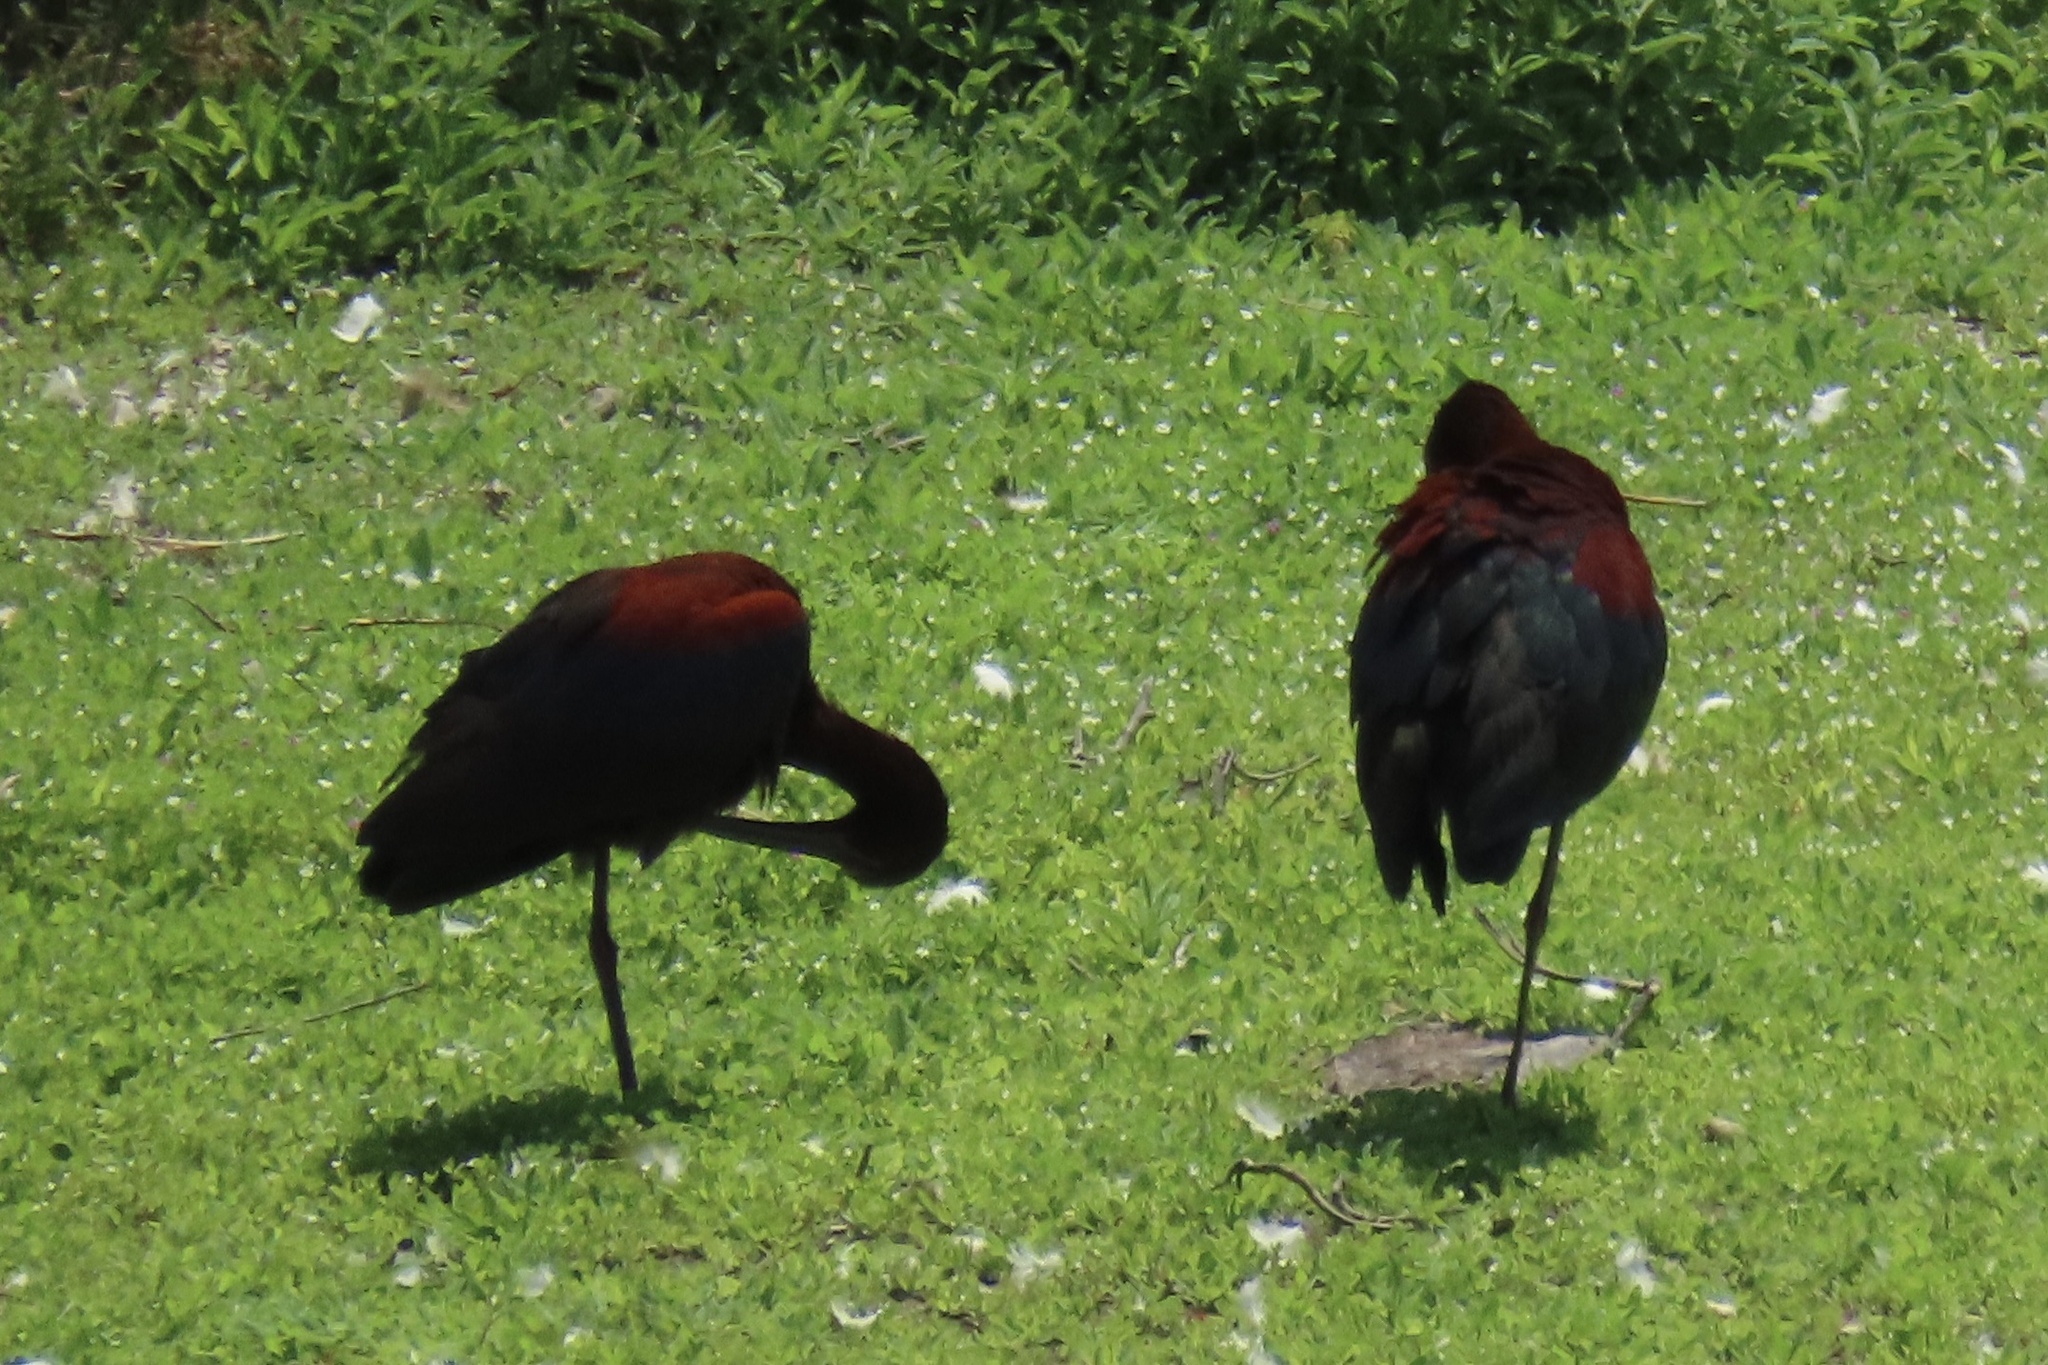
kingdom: Animalia
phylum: Chordata
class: Aves
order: Pelecaniformes
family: Threskiornithidae
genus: Plegadis
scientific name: Plegadis chihi
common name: White-faced ibis
